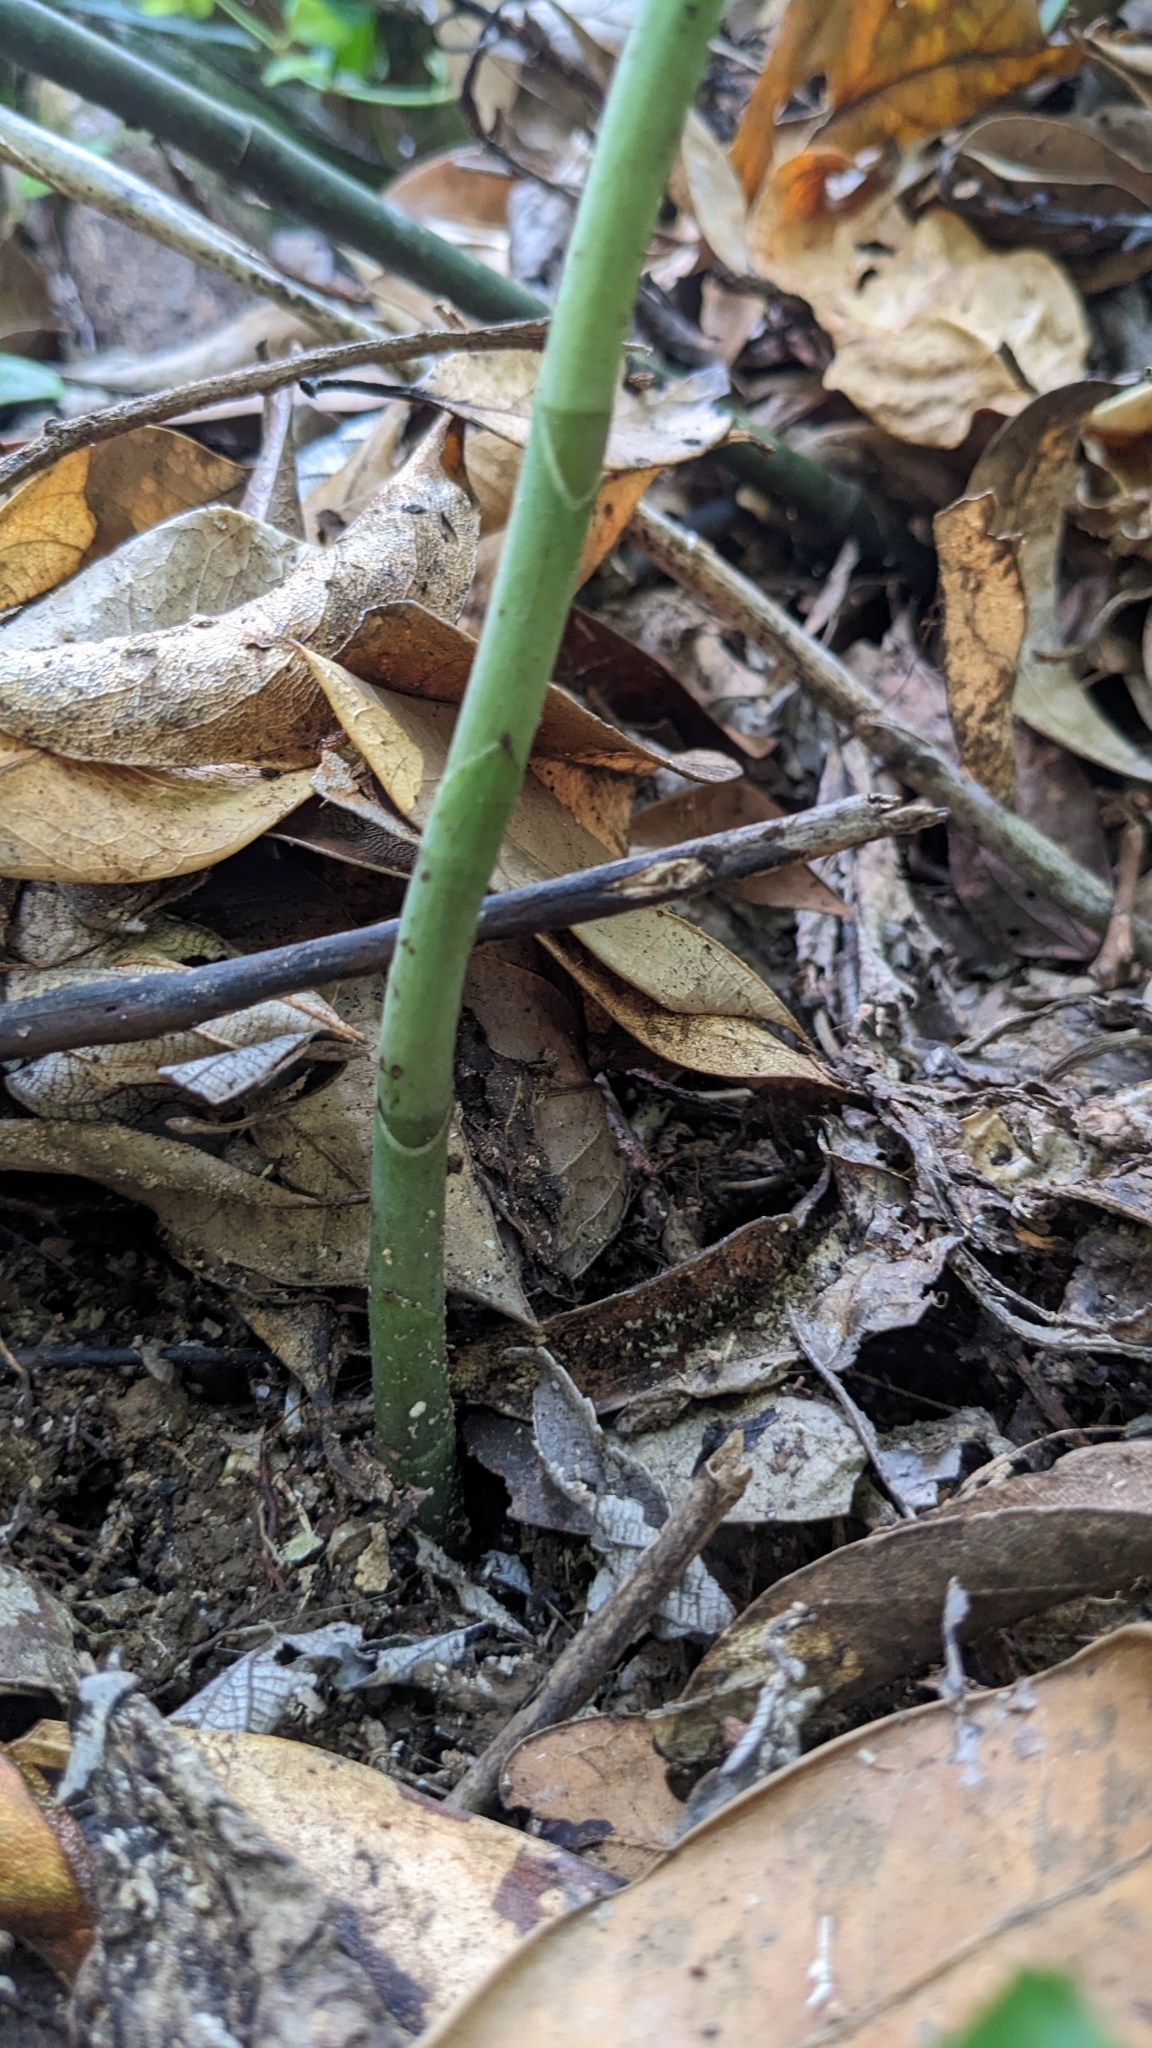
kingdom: Plantae
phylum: Tracheophyta
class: Liliopsida
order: Asparagales
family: Orchidaceae
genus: Habenaria
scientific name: Habenaria stenopetala
